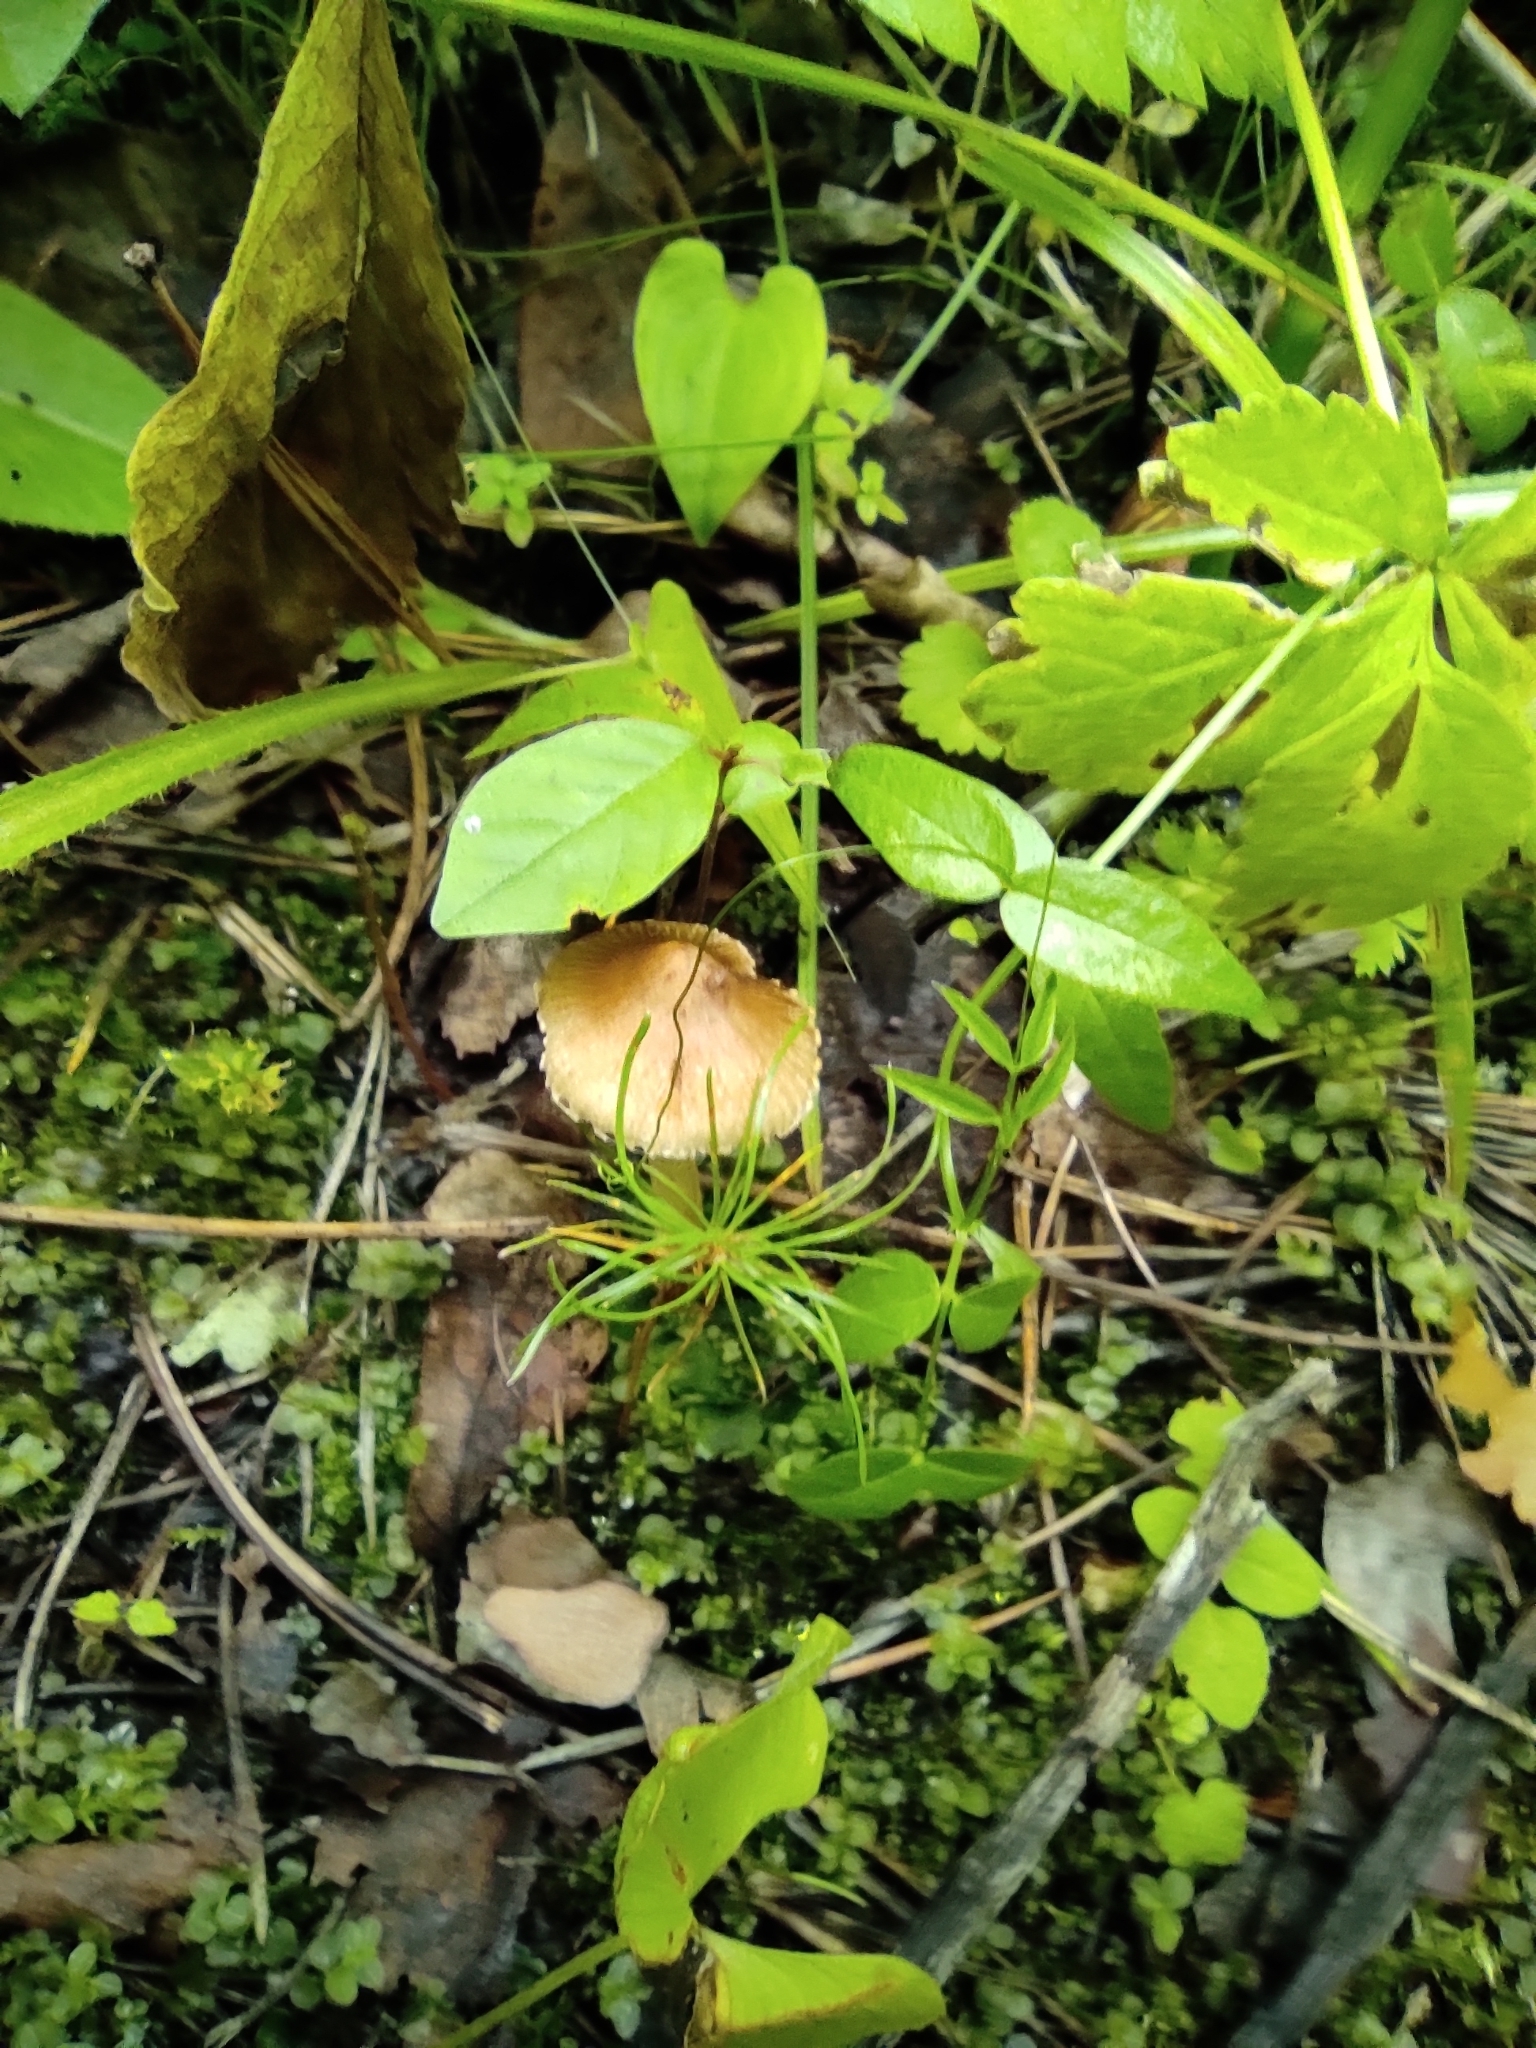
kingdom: Plantae
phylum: Tracheophyta
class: Pinopsida
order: Pinales
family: Pinaceae
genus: Pinus
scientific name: Pinus sylvestris
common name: Scots pine
